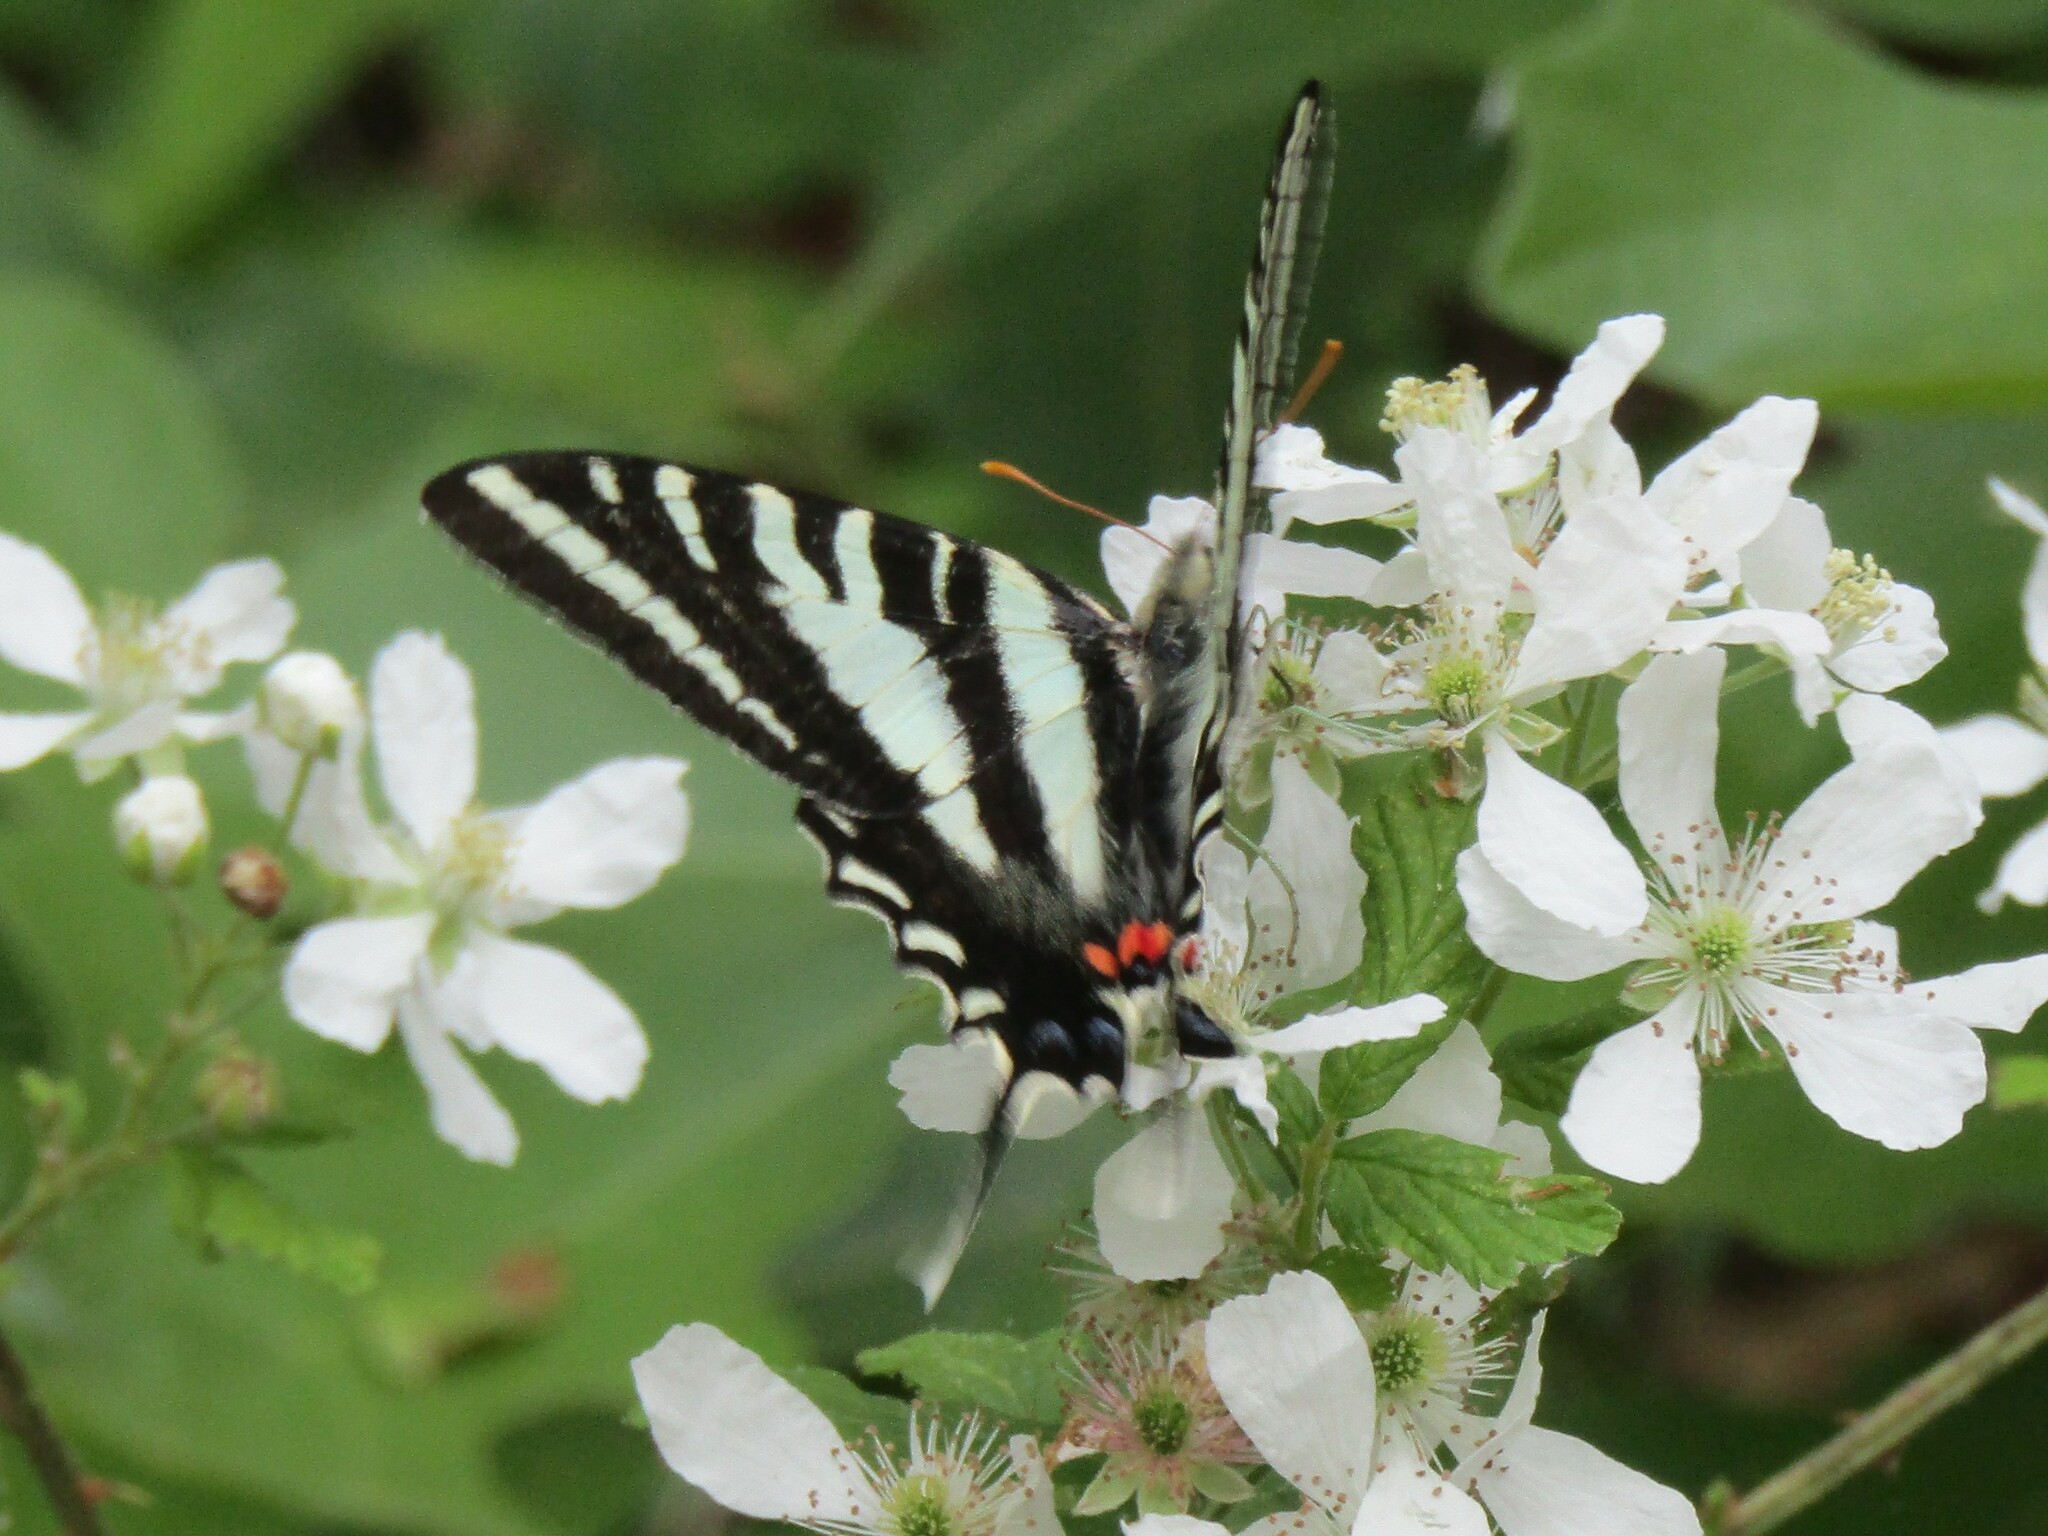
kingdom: Animalia
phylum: Arthropoda
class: Insecta
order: Lepidoptera
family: Papilionidae
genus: Protographium
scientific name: Protographium marcellus
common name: Zebra swallowtail
